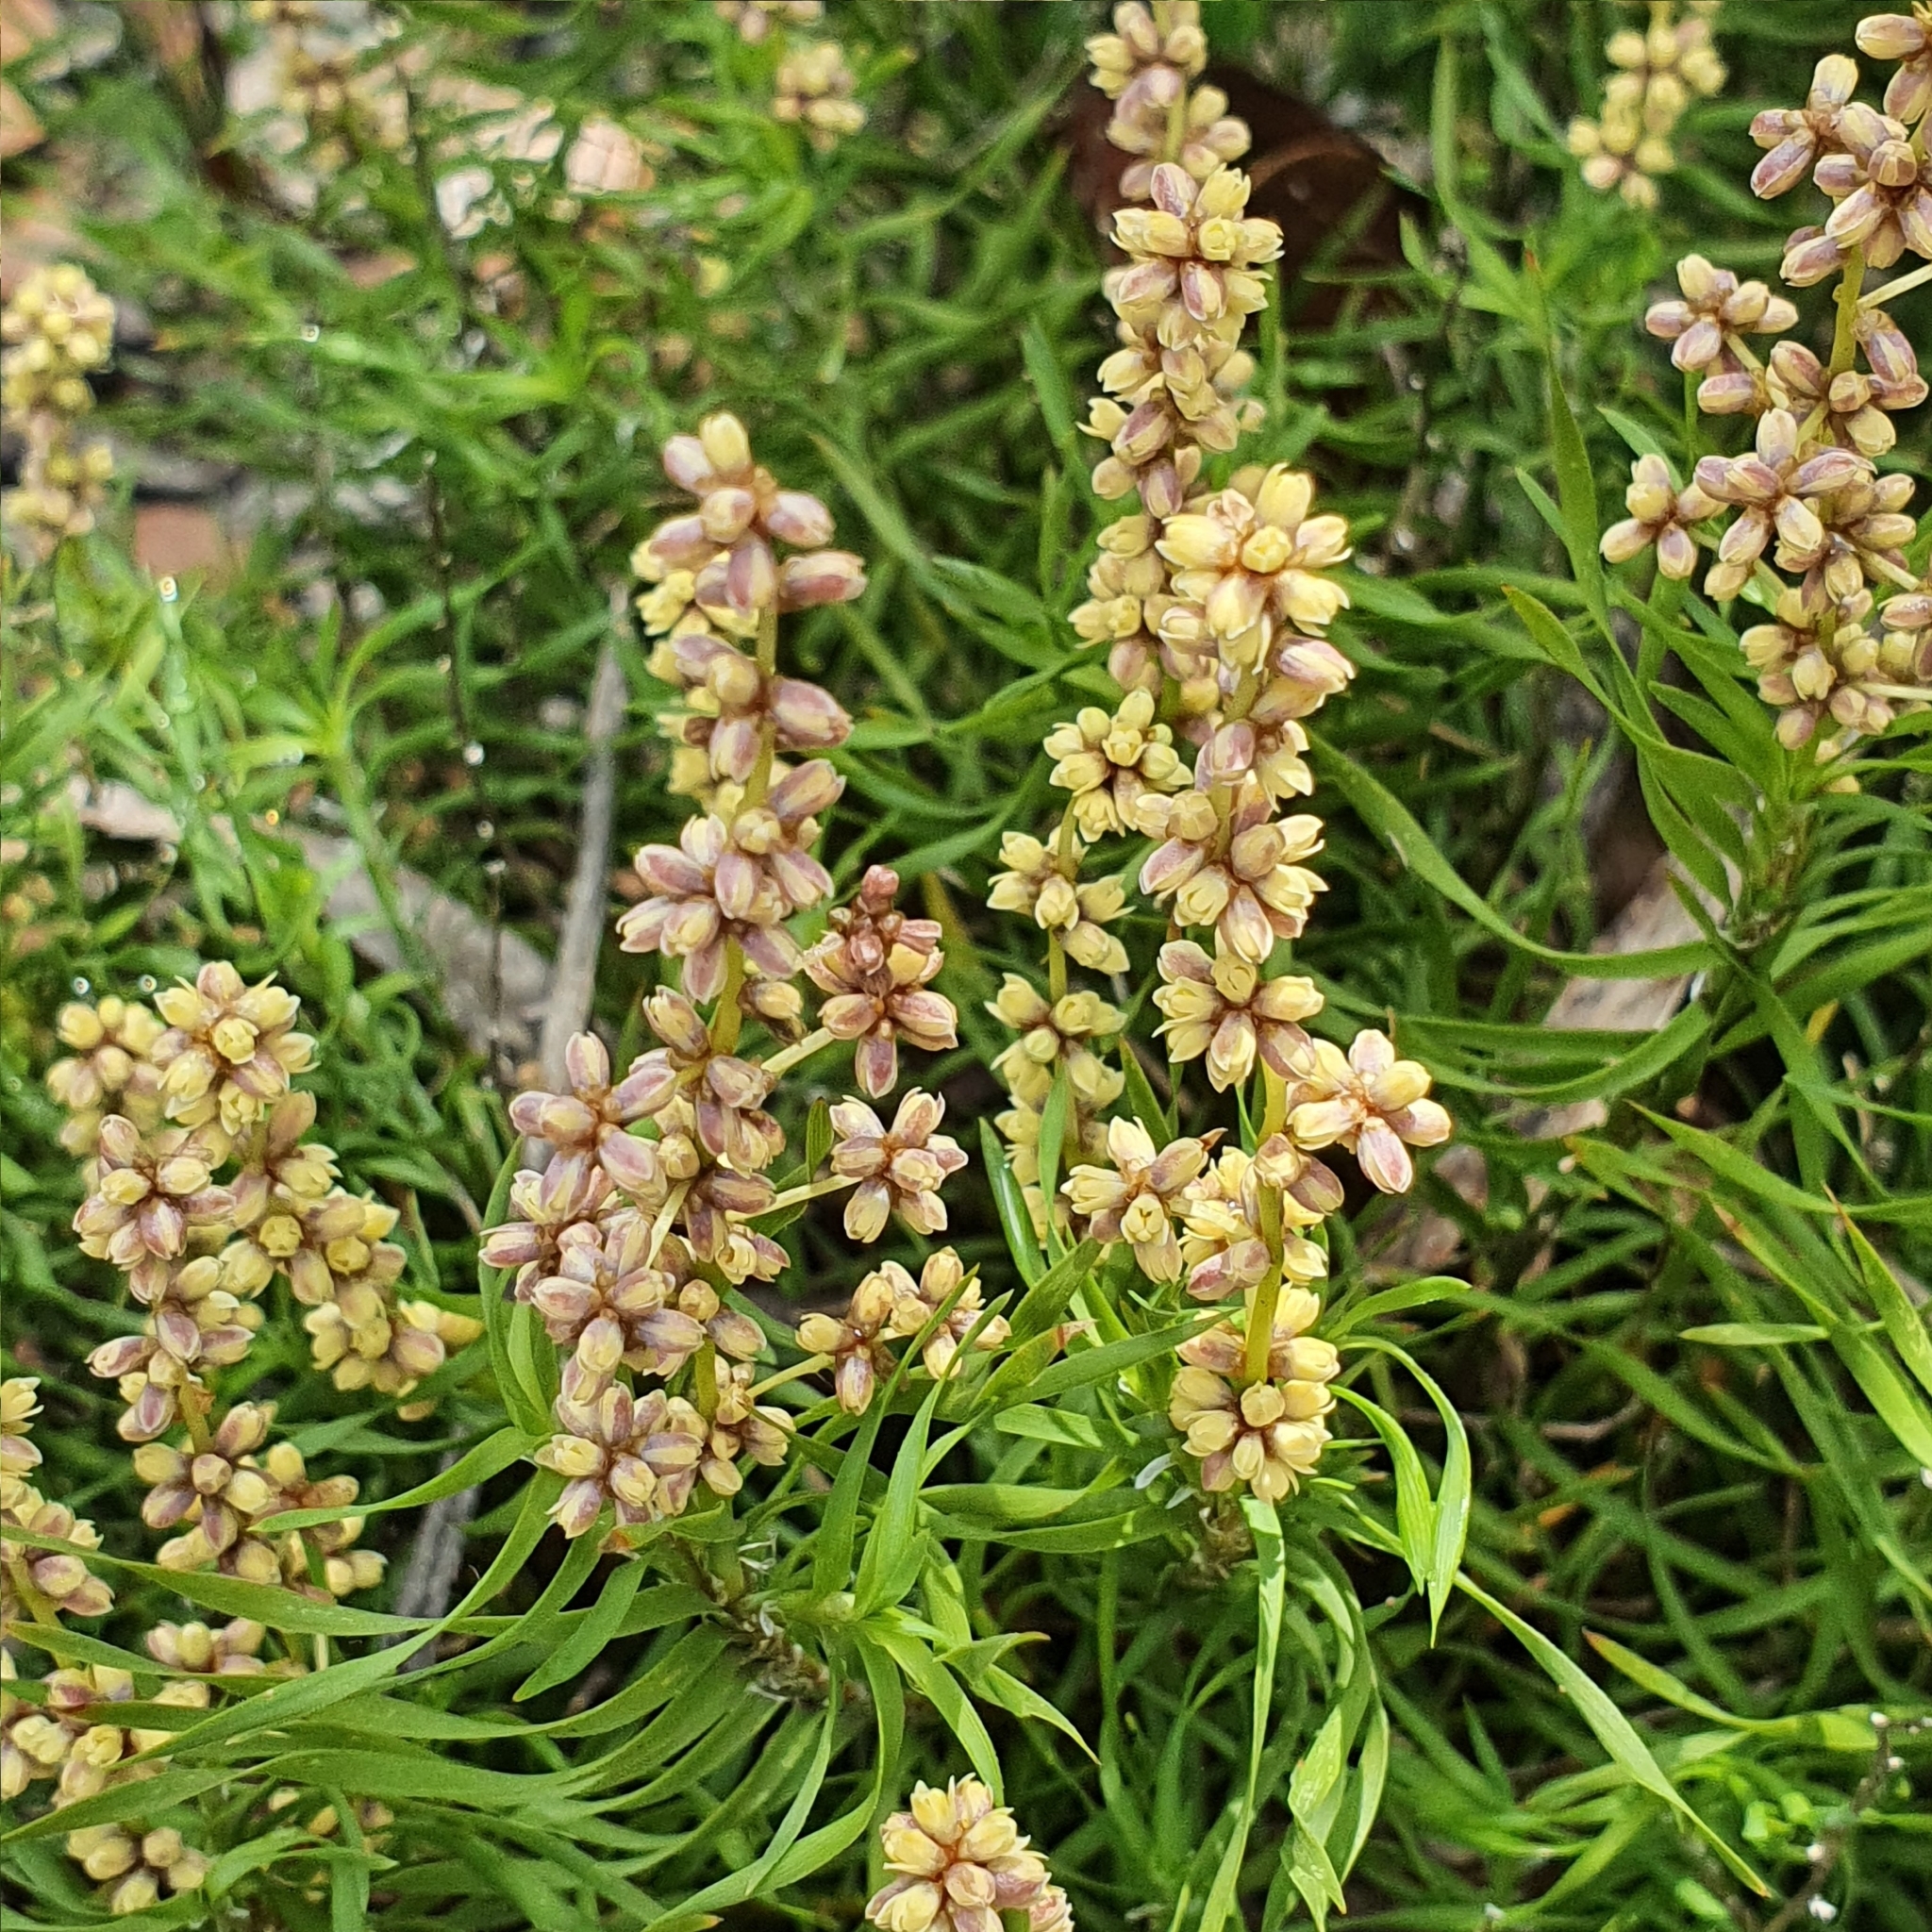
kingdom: Plantae
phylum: Tracheophyta
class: Liliopsida
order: Asparagales
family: Asparagaceae
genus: Lomandra
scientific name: Lomandra obliqua
